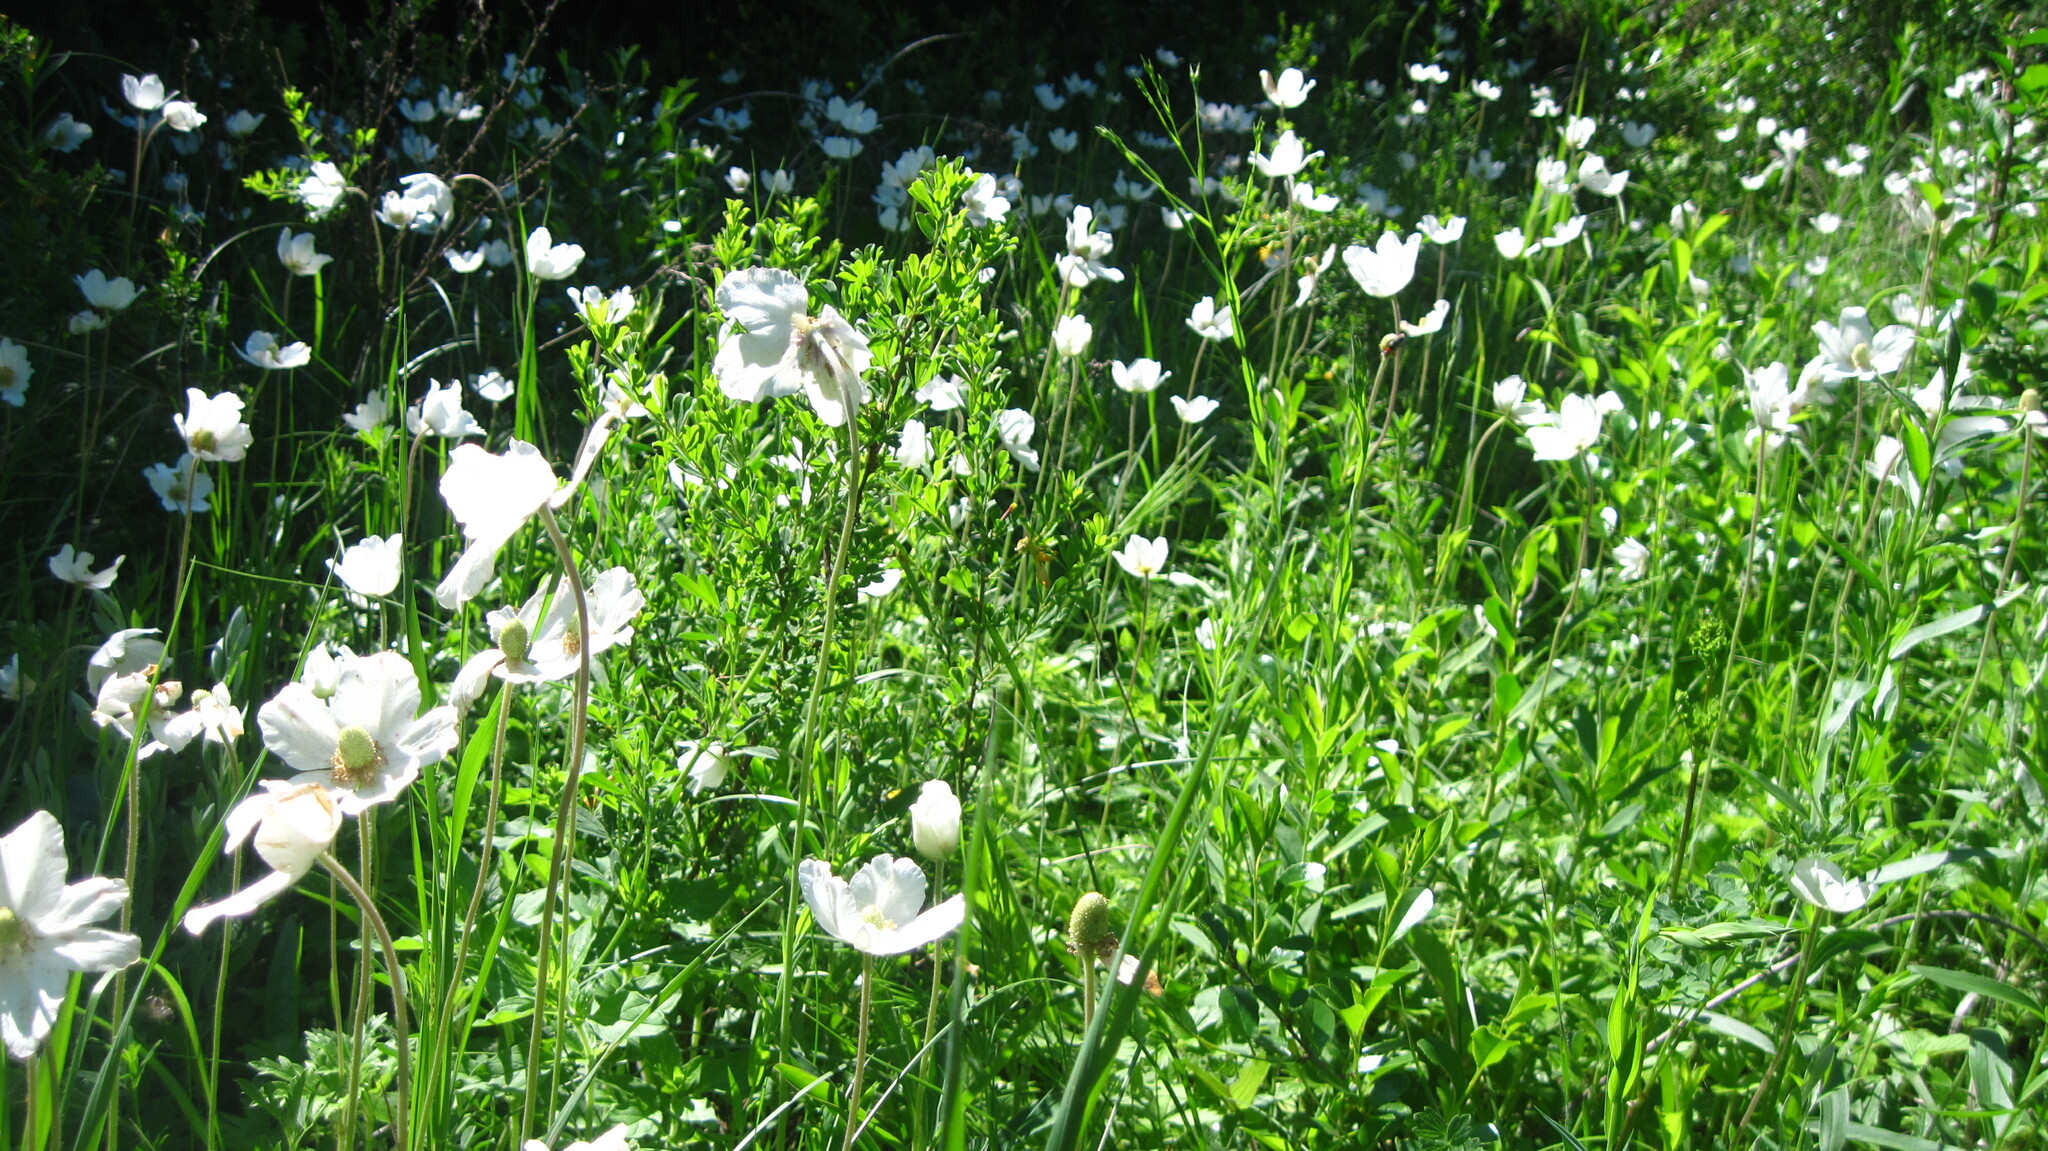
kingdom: Plantae
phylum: Tracheophyta
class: Magnoliopsida
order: Ranunculales
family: Ranunculaceae
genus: Anemone
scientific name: Anemone sylvestris
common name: Snowdrop anemone
